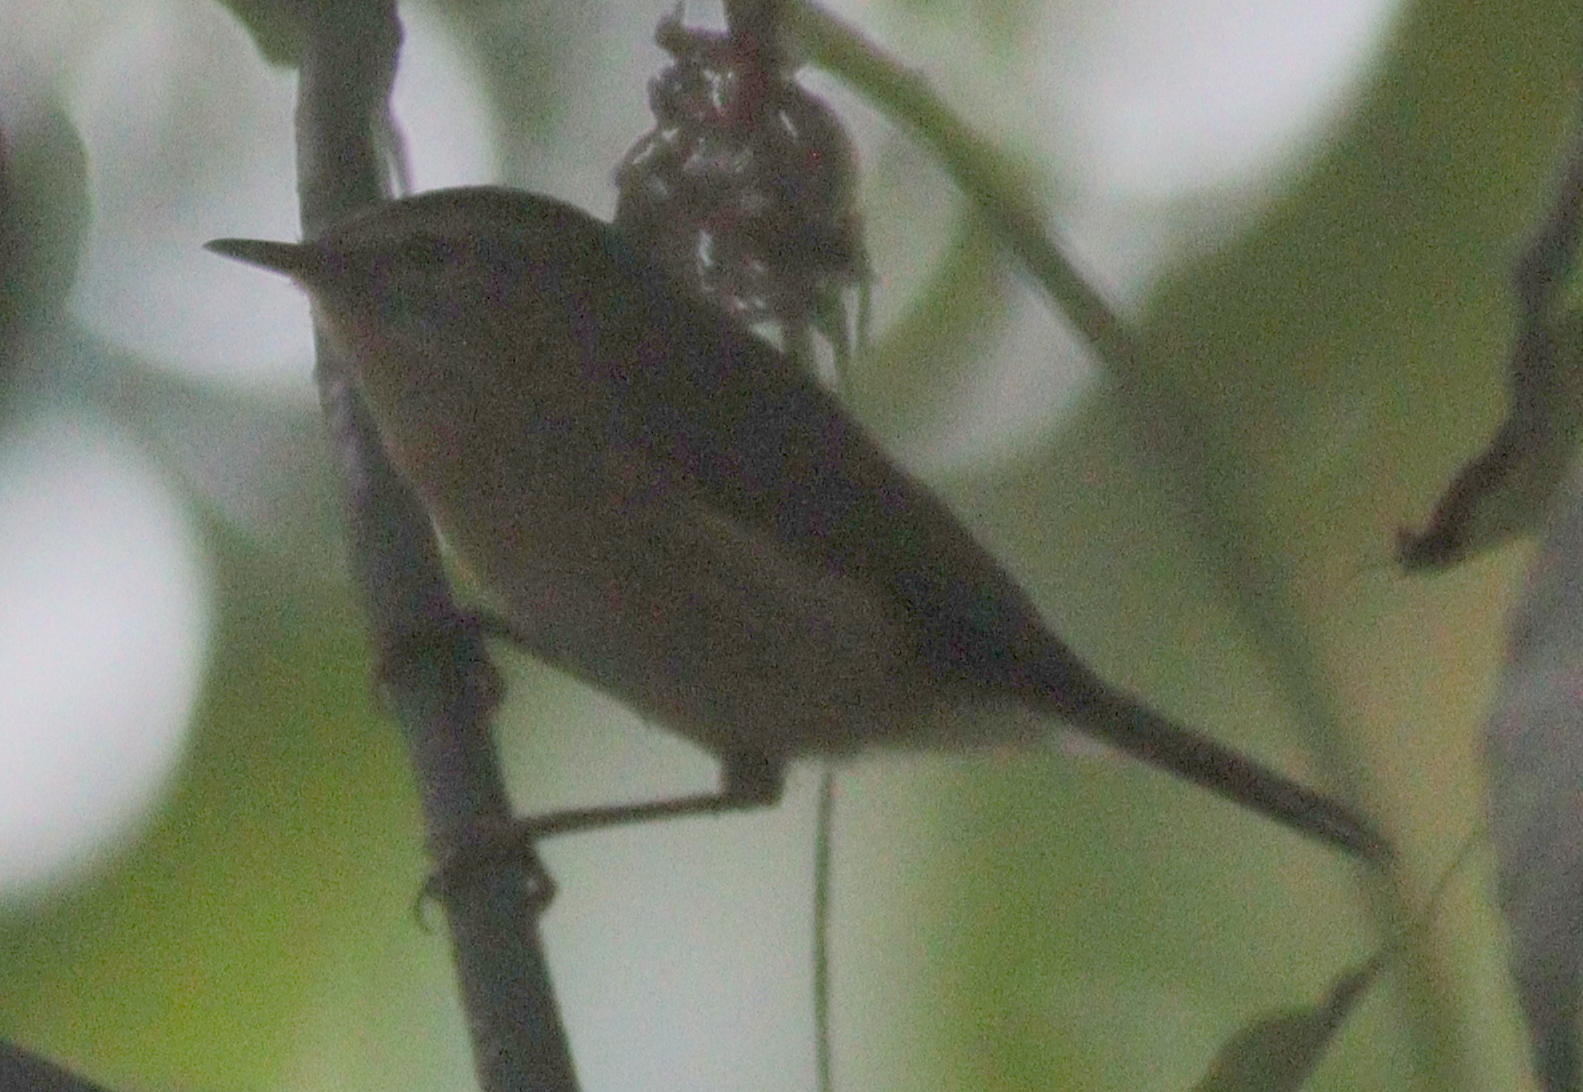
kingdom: Animalia
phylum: Chordata
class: Aves
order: Passeriformes
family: Phylloscopidae
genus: Phylloscopus
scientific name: Phylloscopus canariensis
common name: Canary islands chiffchaff
